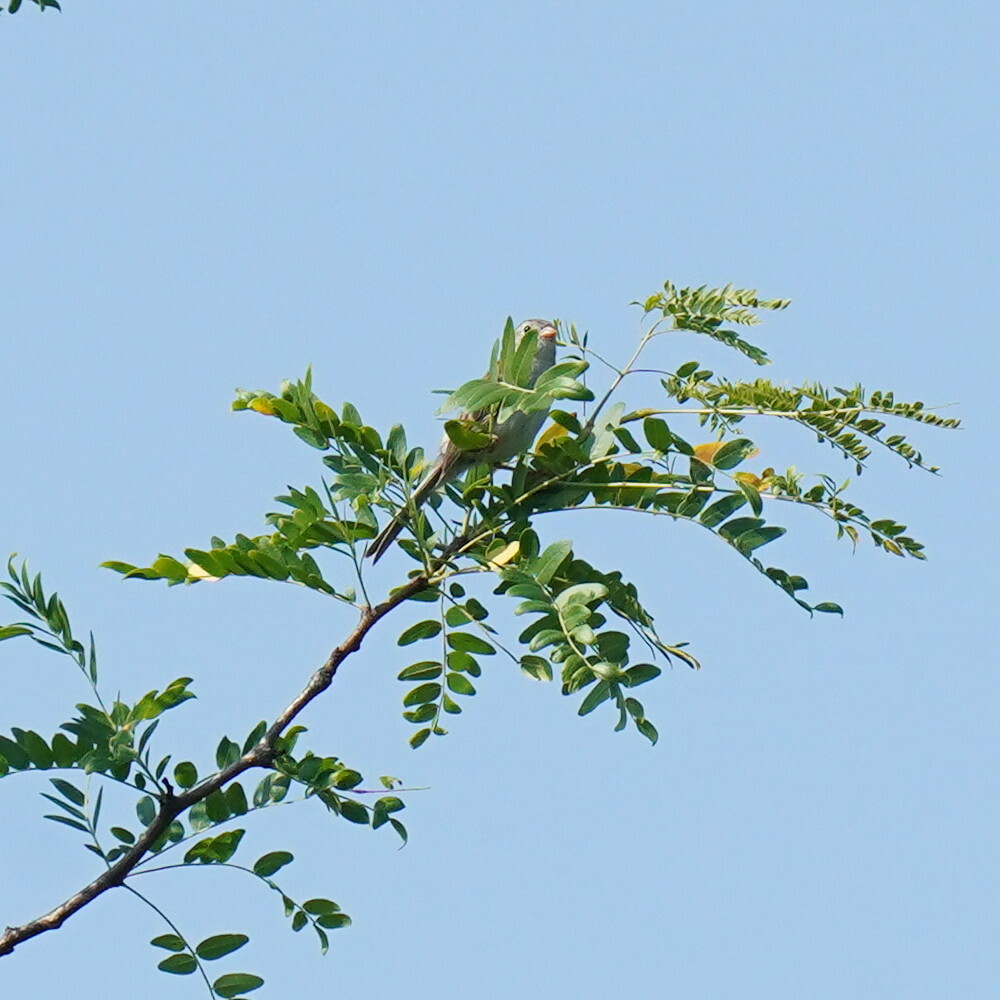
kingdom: Animalia
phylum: Chordata
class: Aves
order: Passeriformes
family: Passerellidae
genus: Spizella
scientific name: Spizella pusilla
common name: Field sparrow
